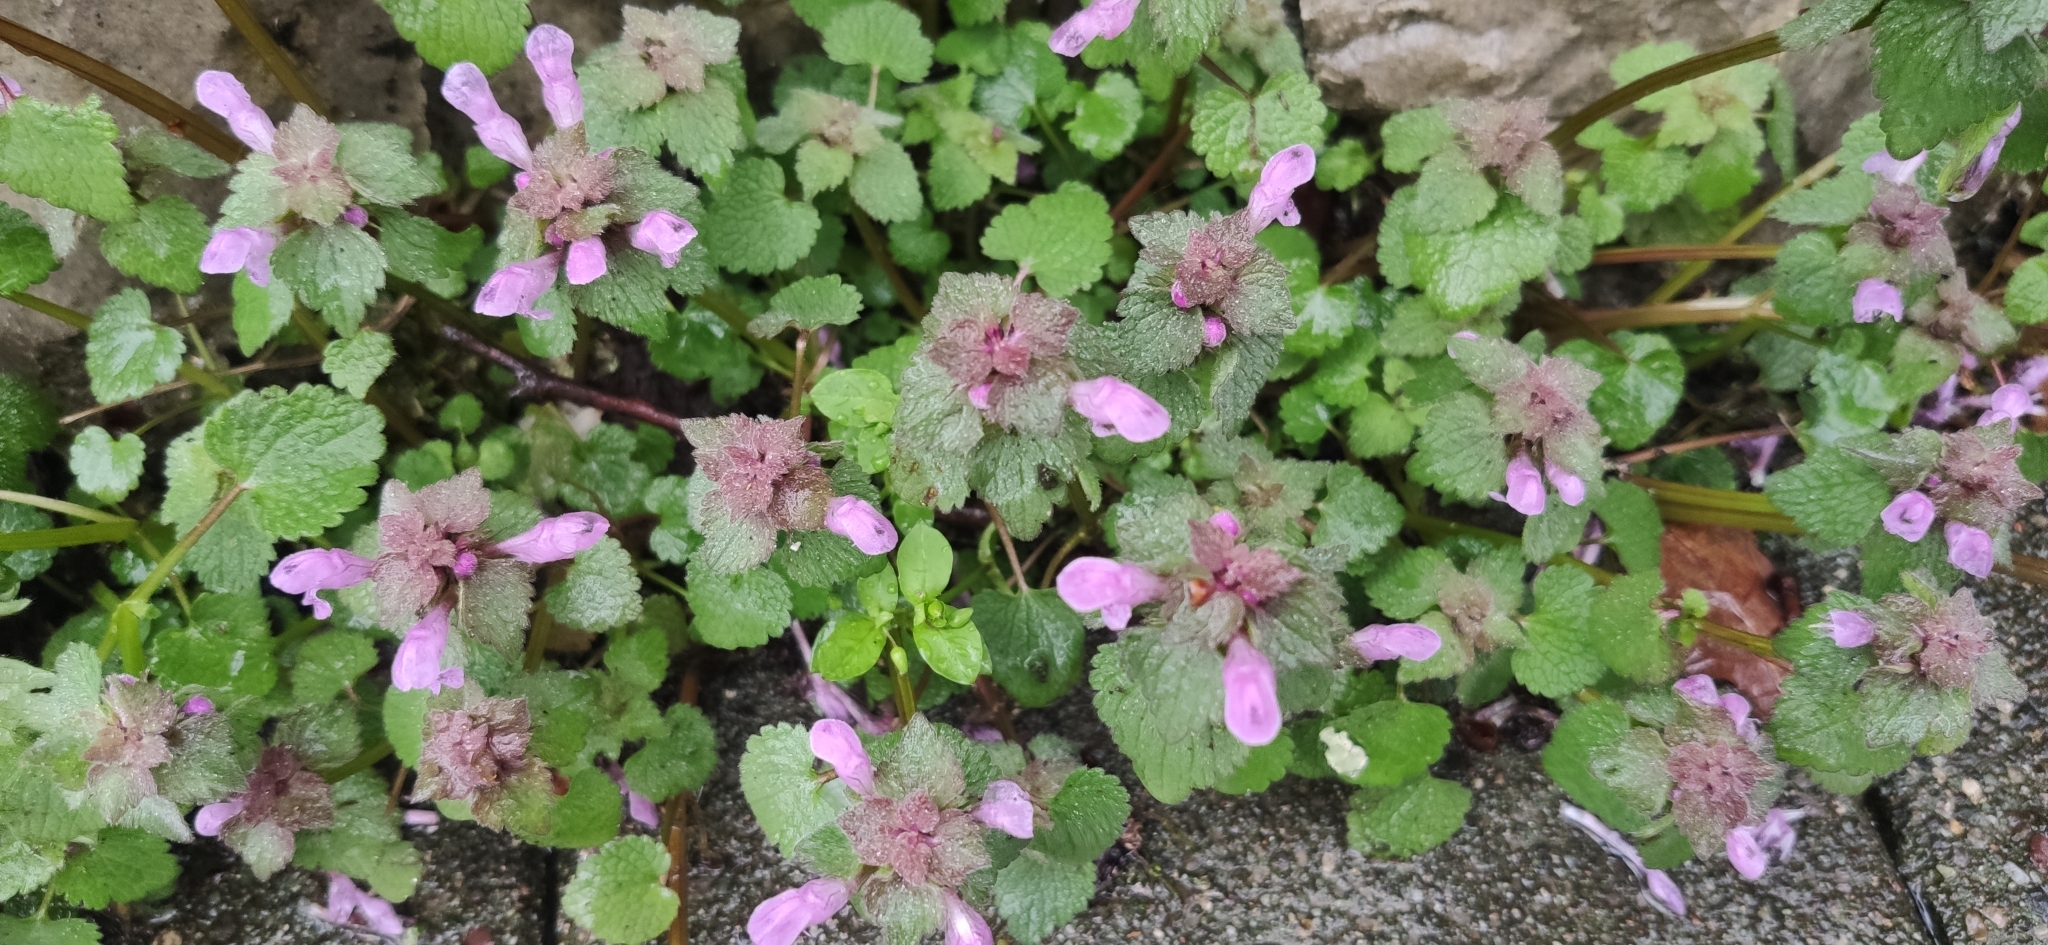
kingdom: Plantae
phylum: Tracheophyta
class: Magnoliopsida
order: Lamiales
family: Lamiaceae
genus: Lamium
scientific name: Lamium purpureum
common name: Red dead-nettle
